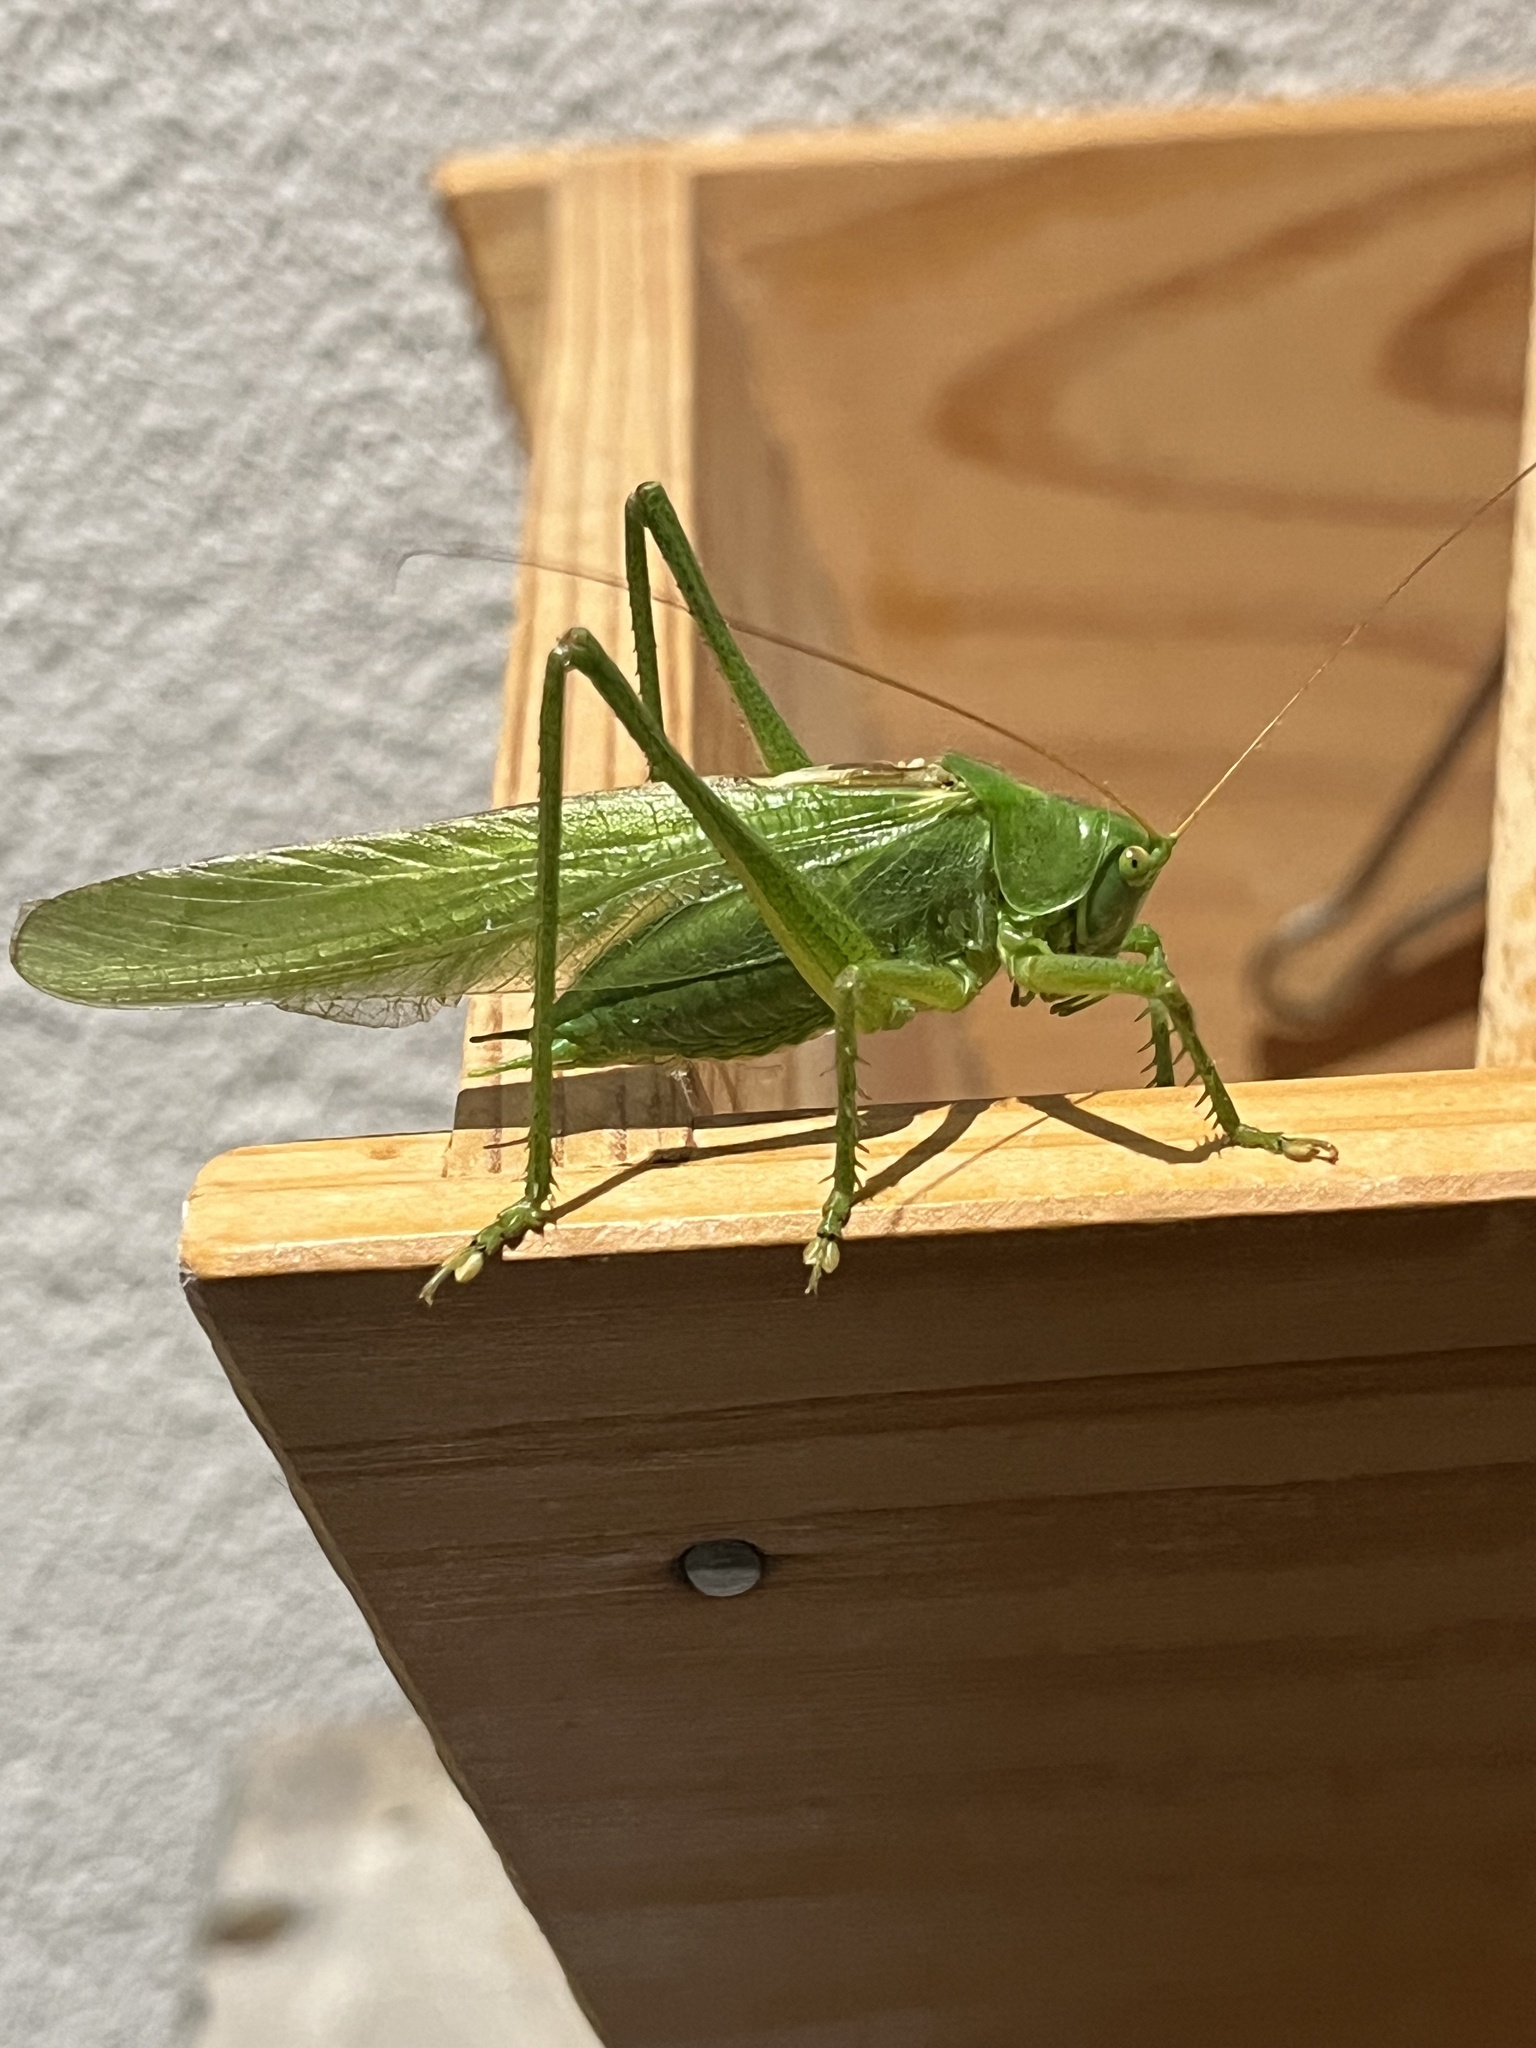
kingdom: Animalia
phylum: Arthropoda
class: Insecta
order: Orthoptera
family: Tettigoniidae
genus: Tettigonia
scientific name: Tettigonia viridissima
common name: Great green bush-cricket
